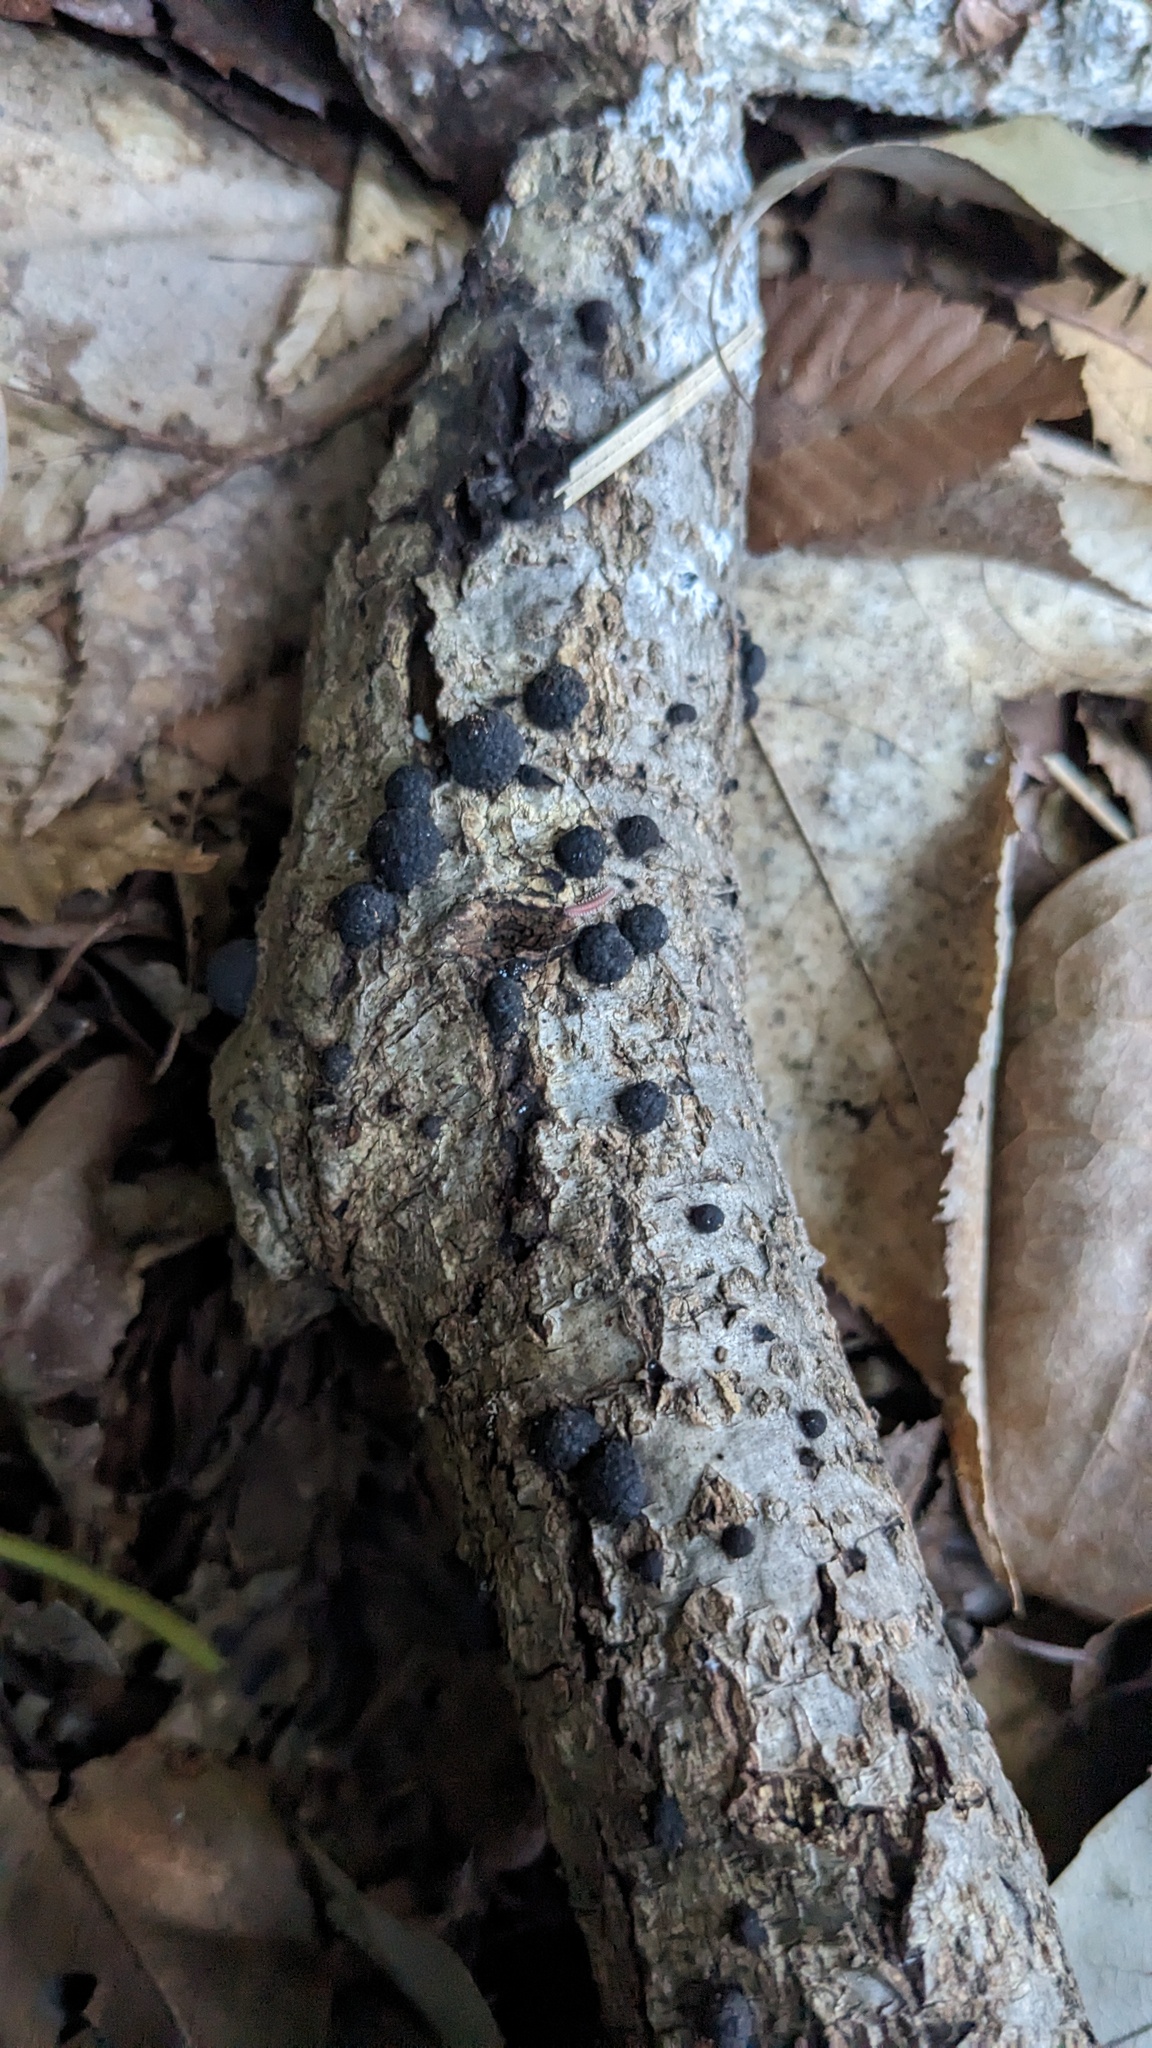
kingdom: Fungi
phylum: Ascomycota
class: Sordariomycetes
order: Xylariales
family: Hypoxylaceae
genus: Annulohypoxylon
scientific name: Annulohypoxylon truncatum
